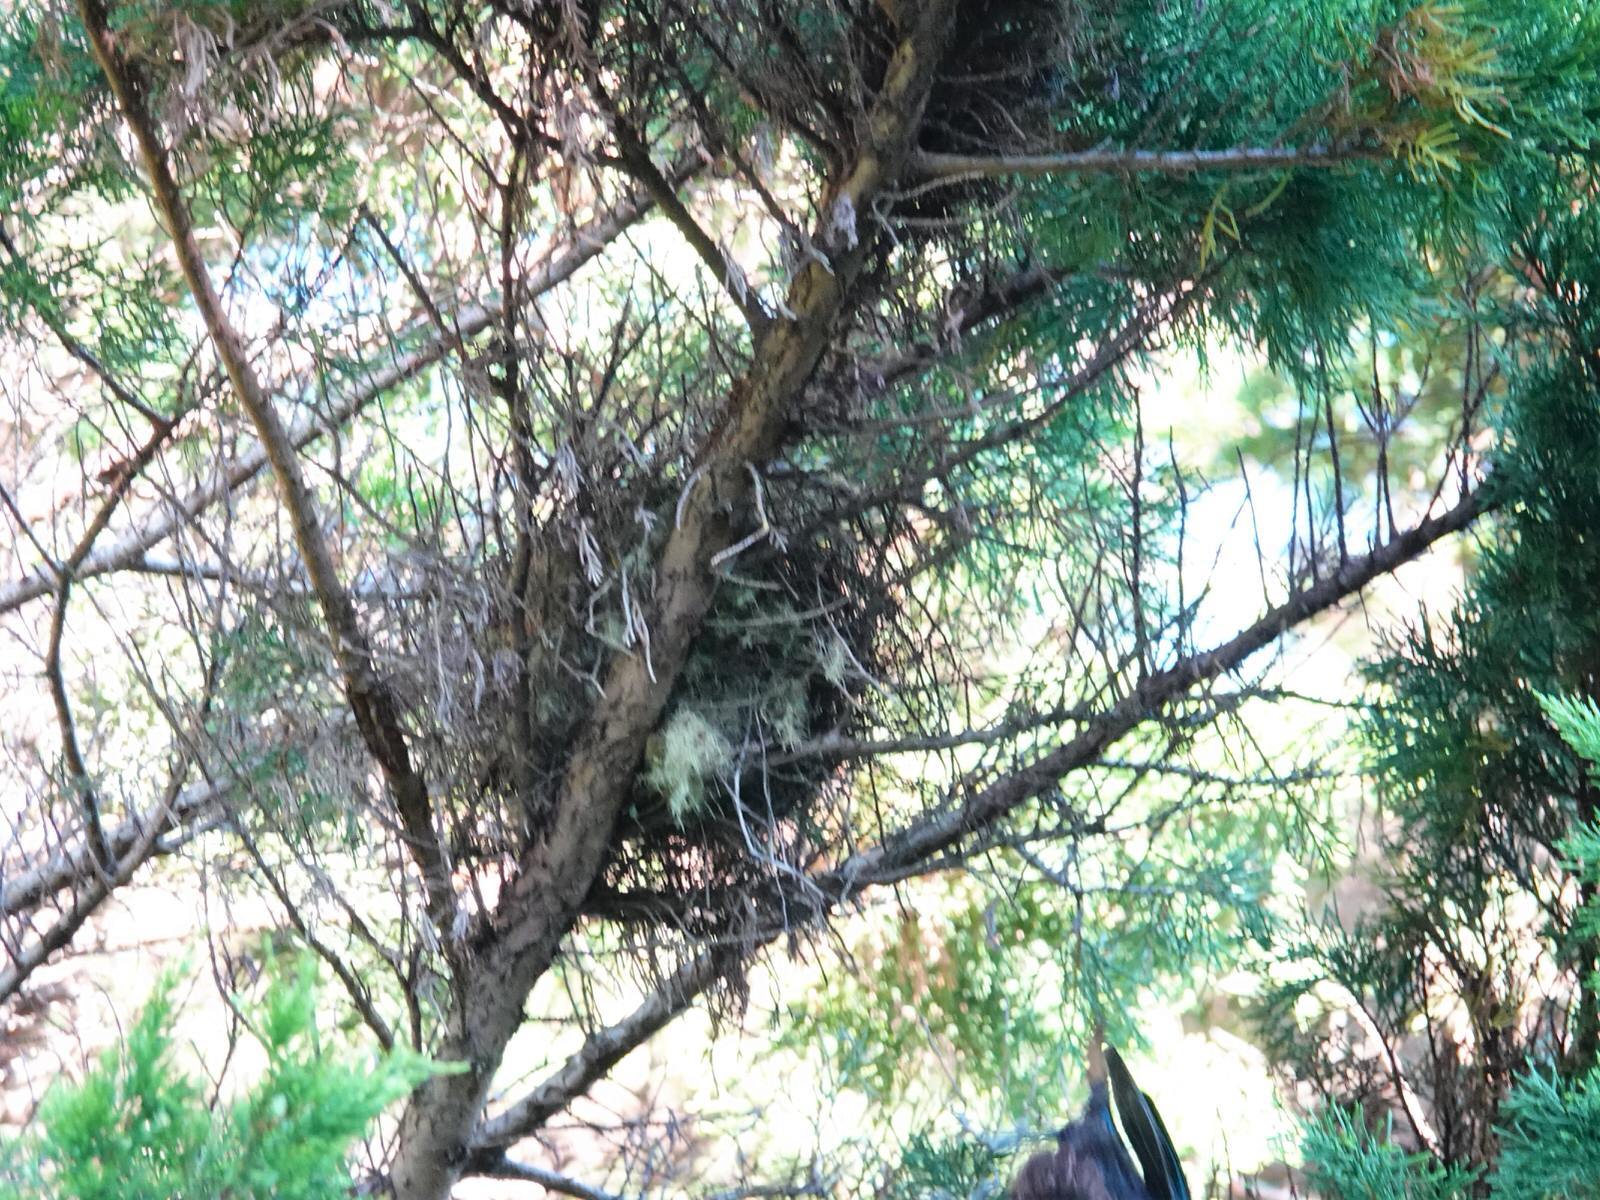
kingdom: Animalia
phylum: Chordata
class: Aves
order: Passeriformes
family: Meliphagidae
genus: Prosthemadera
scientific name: Prosthemadera novaeseelandiae
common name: Tui
